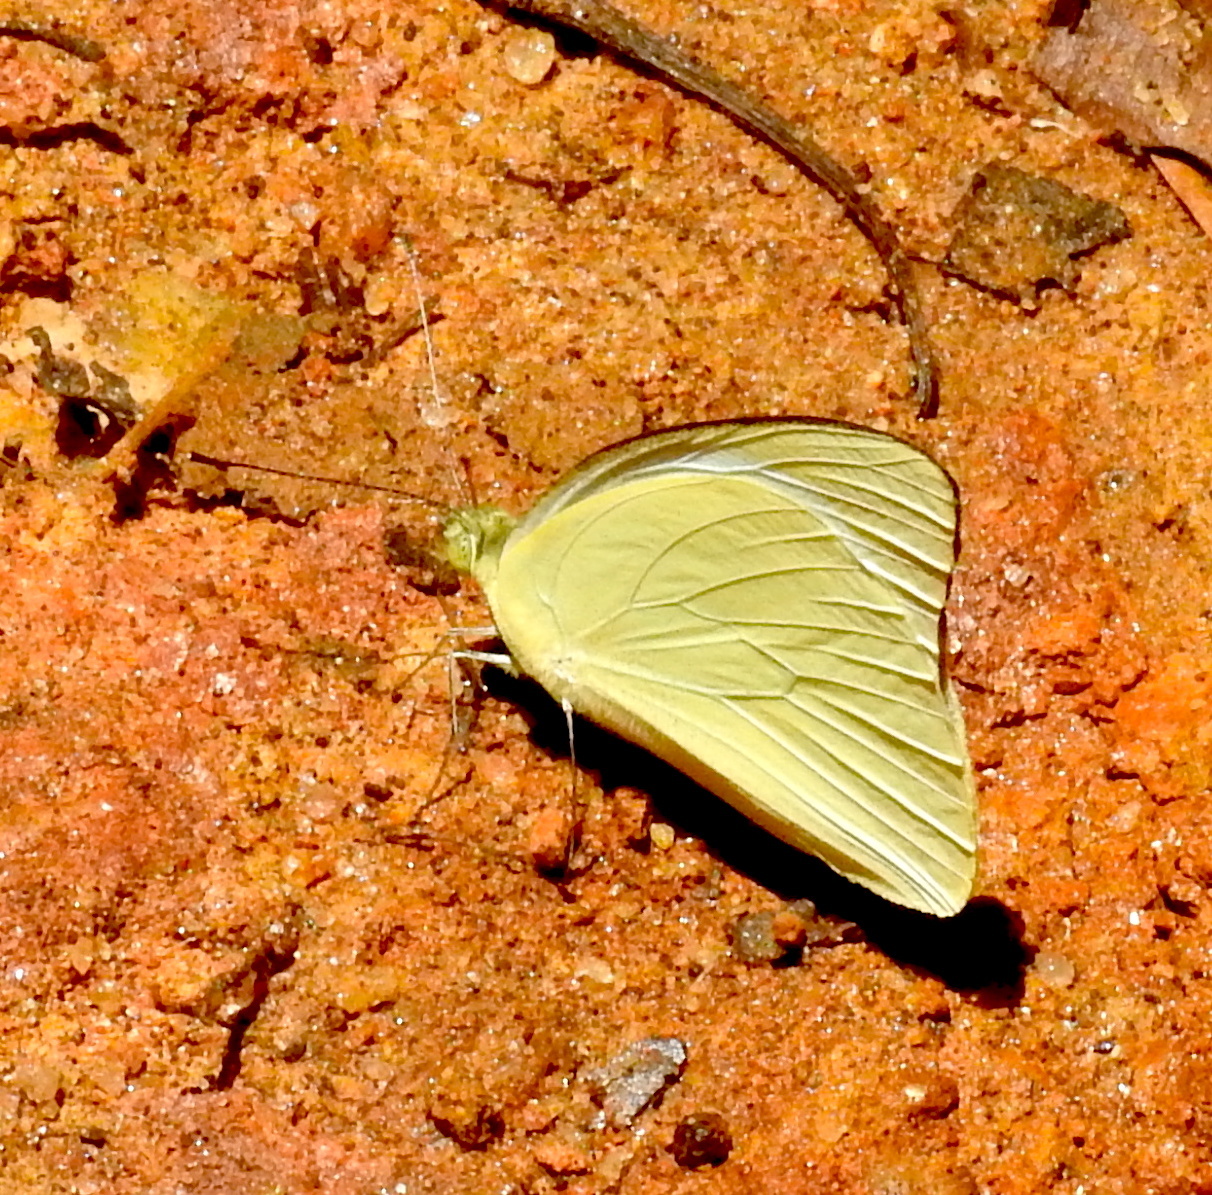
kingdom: Animalia
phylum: Arthropoda
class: Insecta
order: Lepidoptera
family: Pieridae
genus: Appias
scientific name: Appias albina
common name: Common albatross
